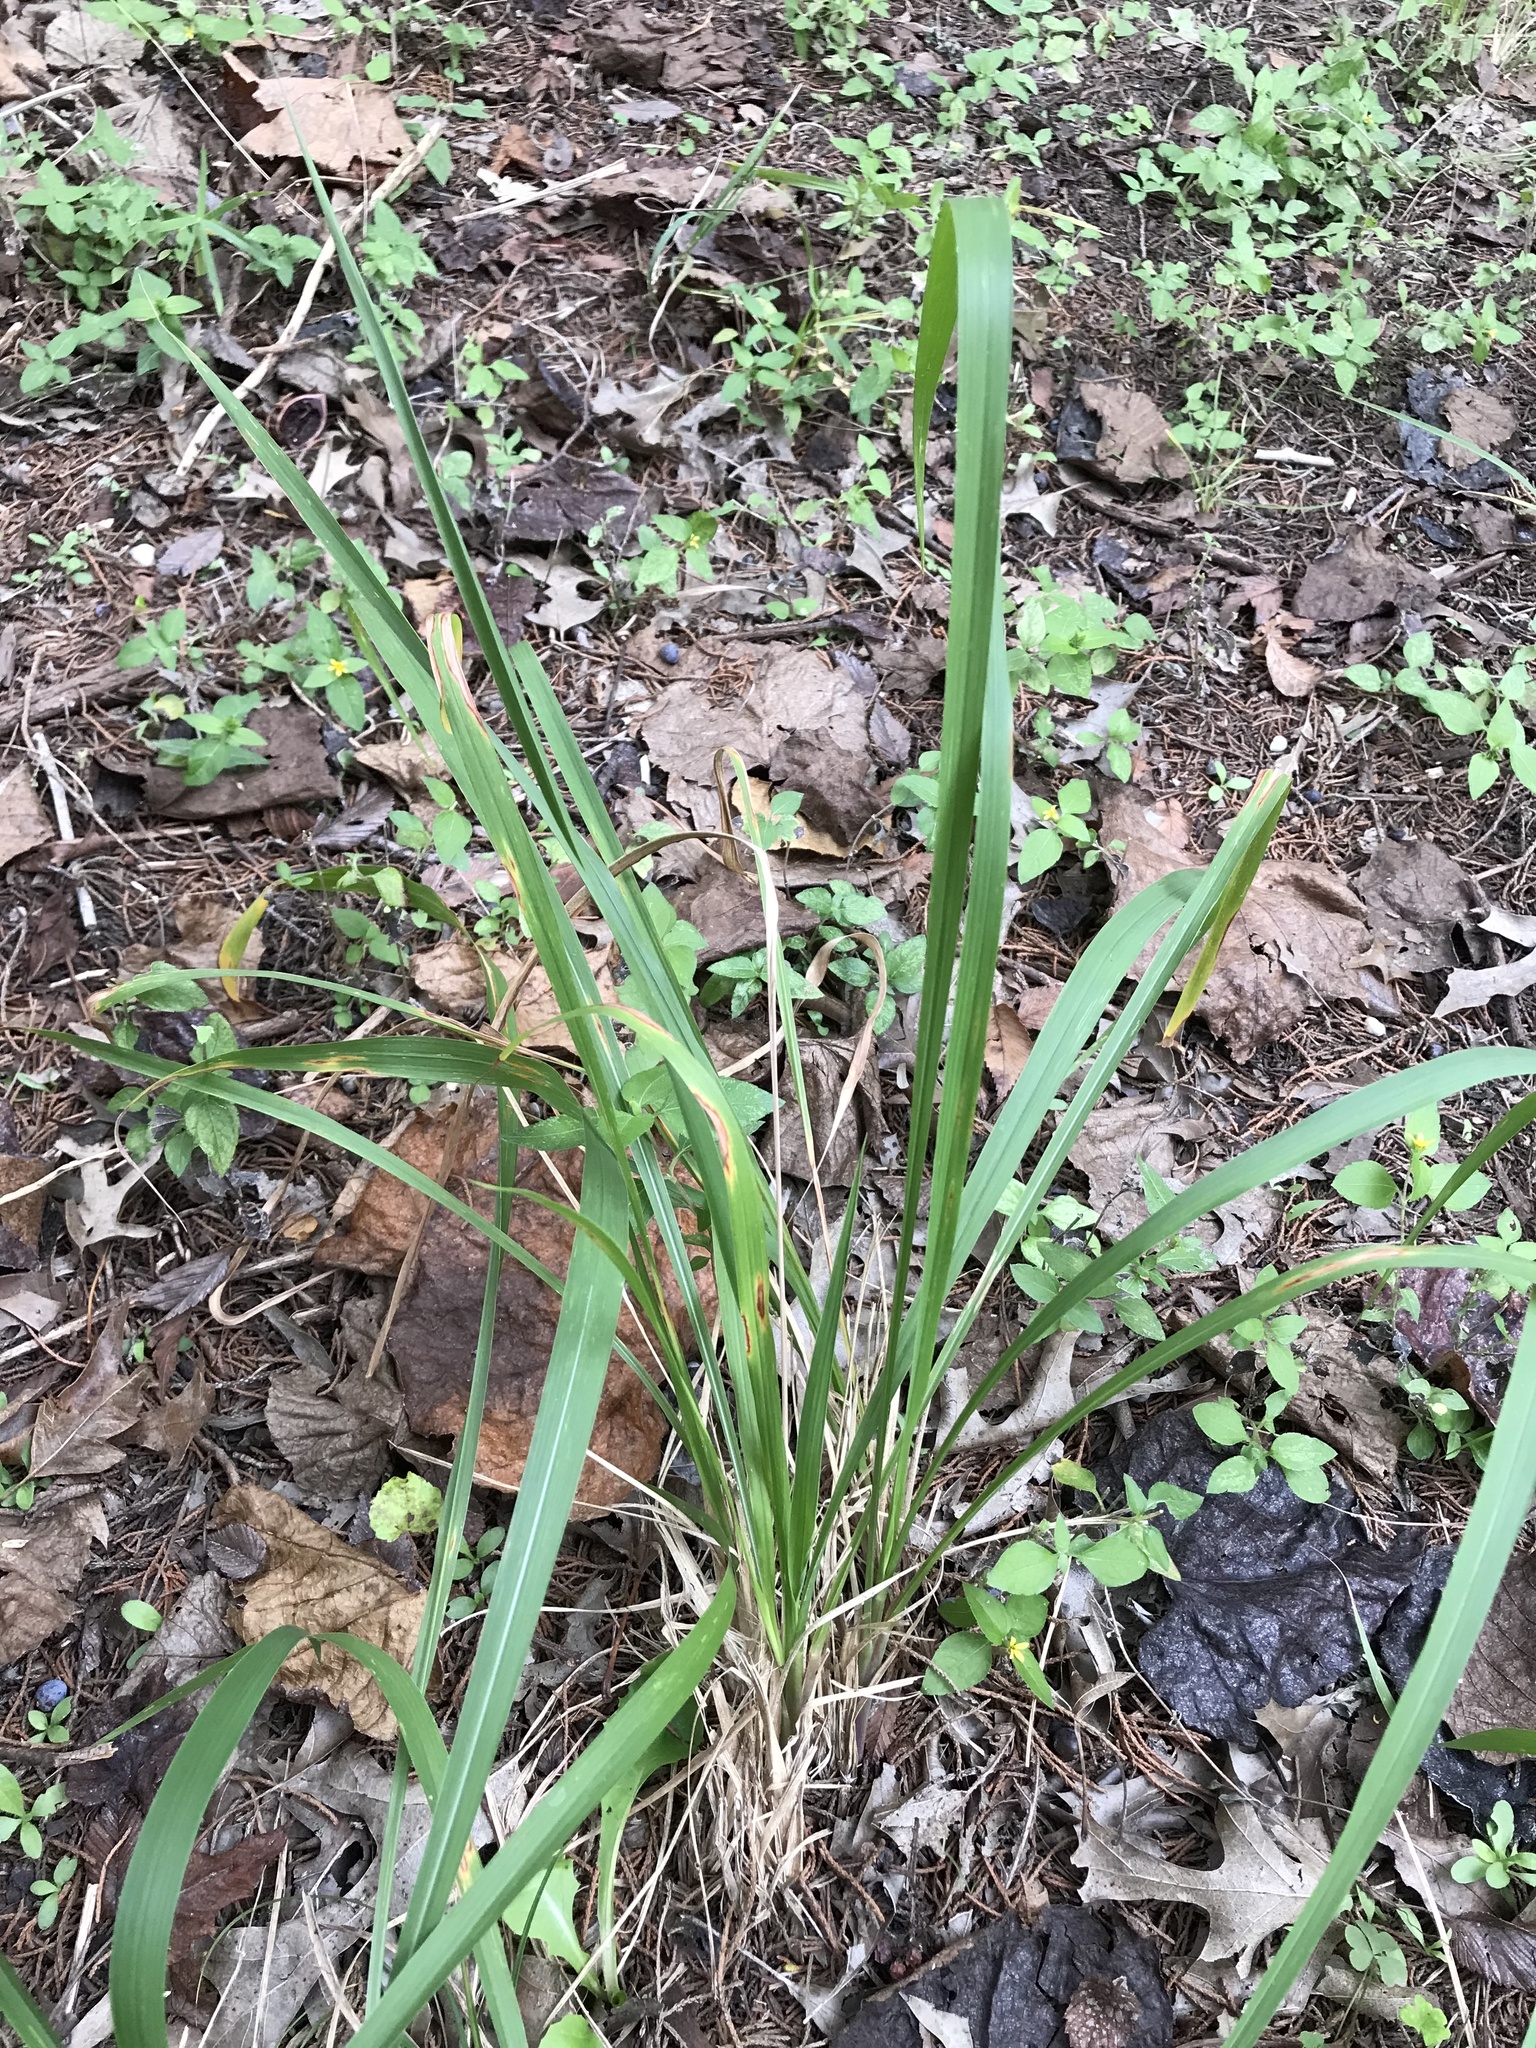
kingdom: Plantae
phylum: Tracheophyta
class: Liliopsida
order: Poales
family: Poaceae
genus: Tridens
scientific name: Tridens flavus
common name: Purpletop
